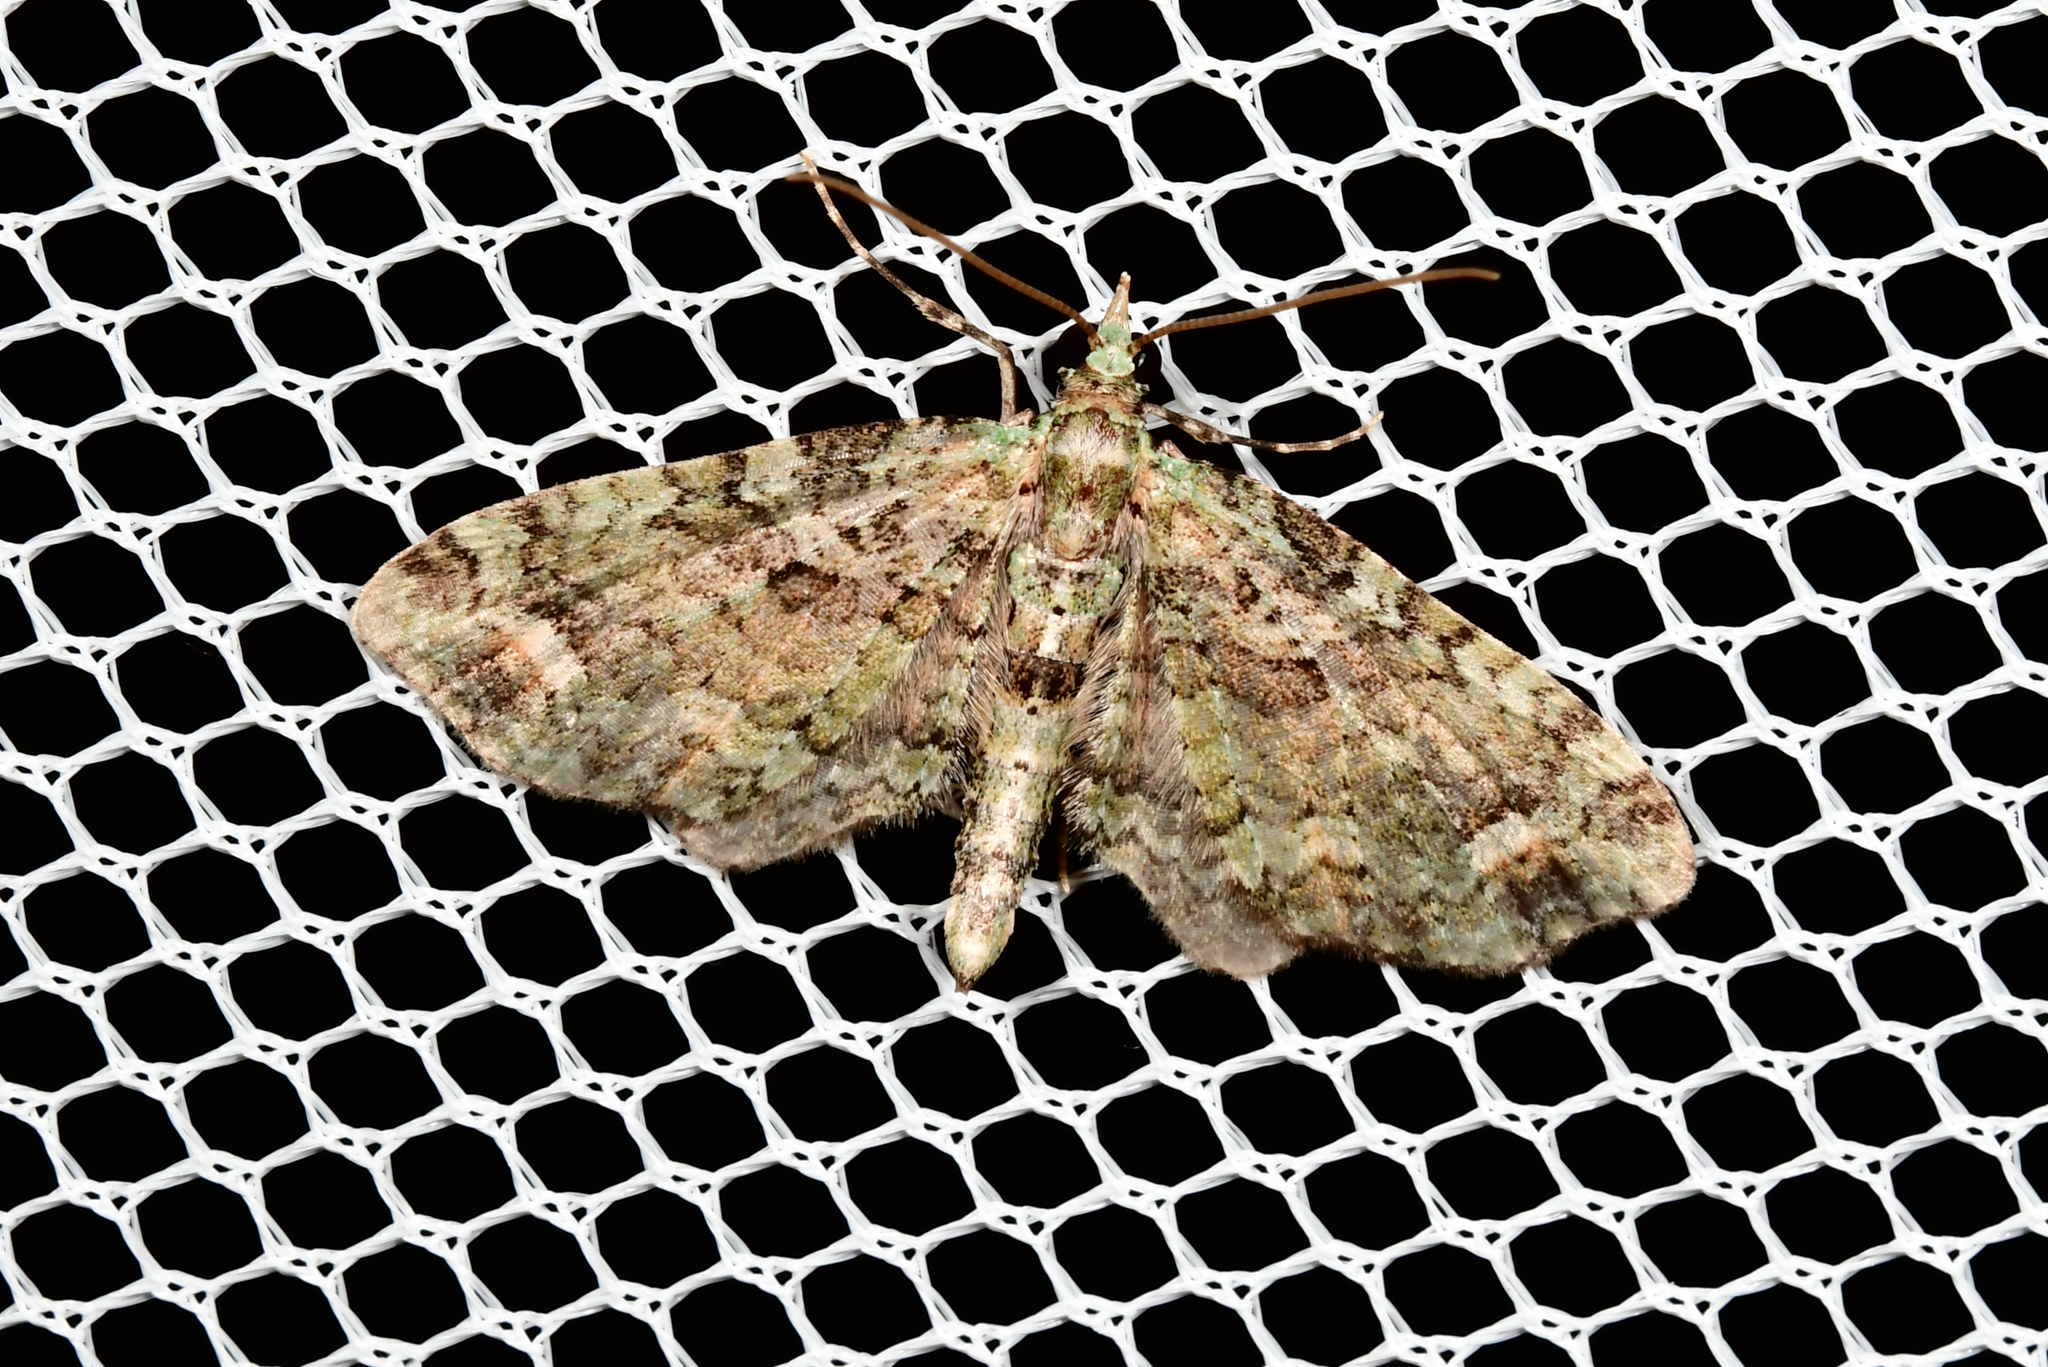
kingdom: Animalia
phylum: Arthropoda
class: Insecta
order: Lepidoptera
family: Geometridae
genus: Idaea
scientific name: Idaea mutanda
